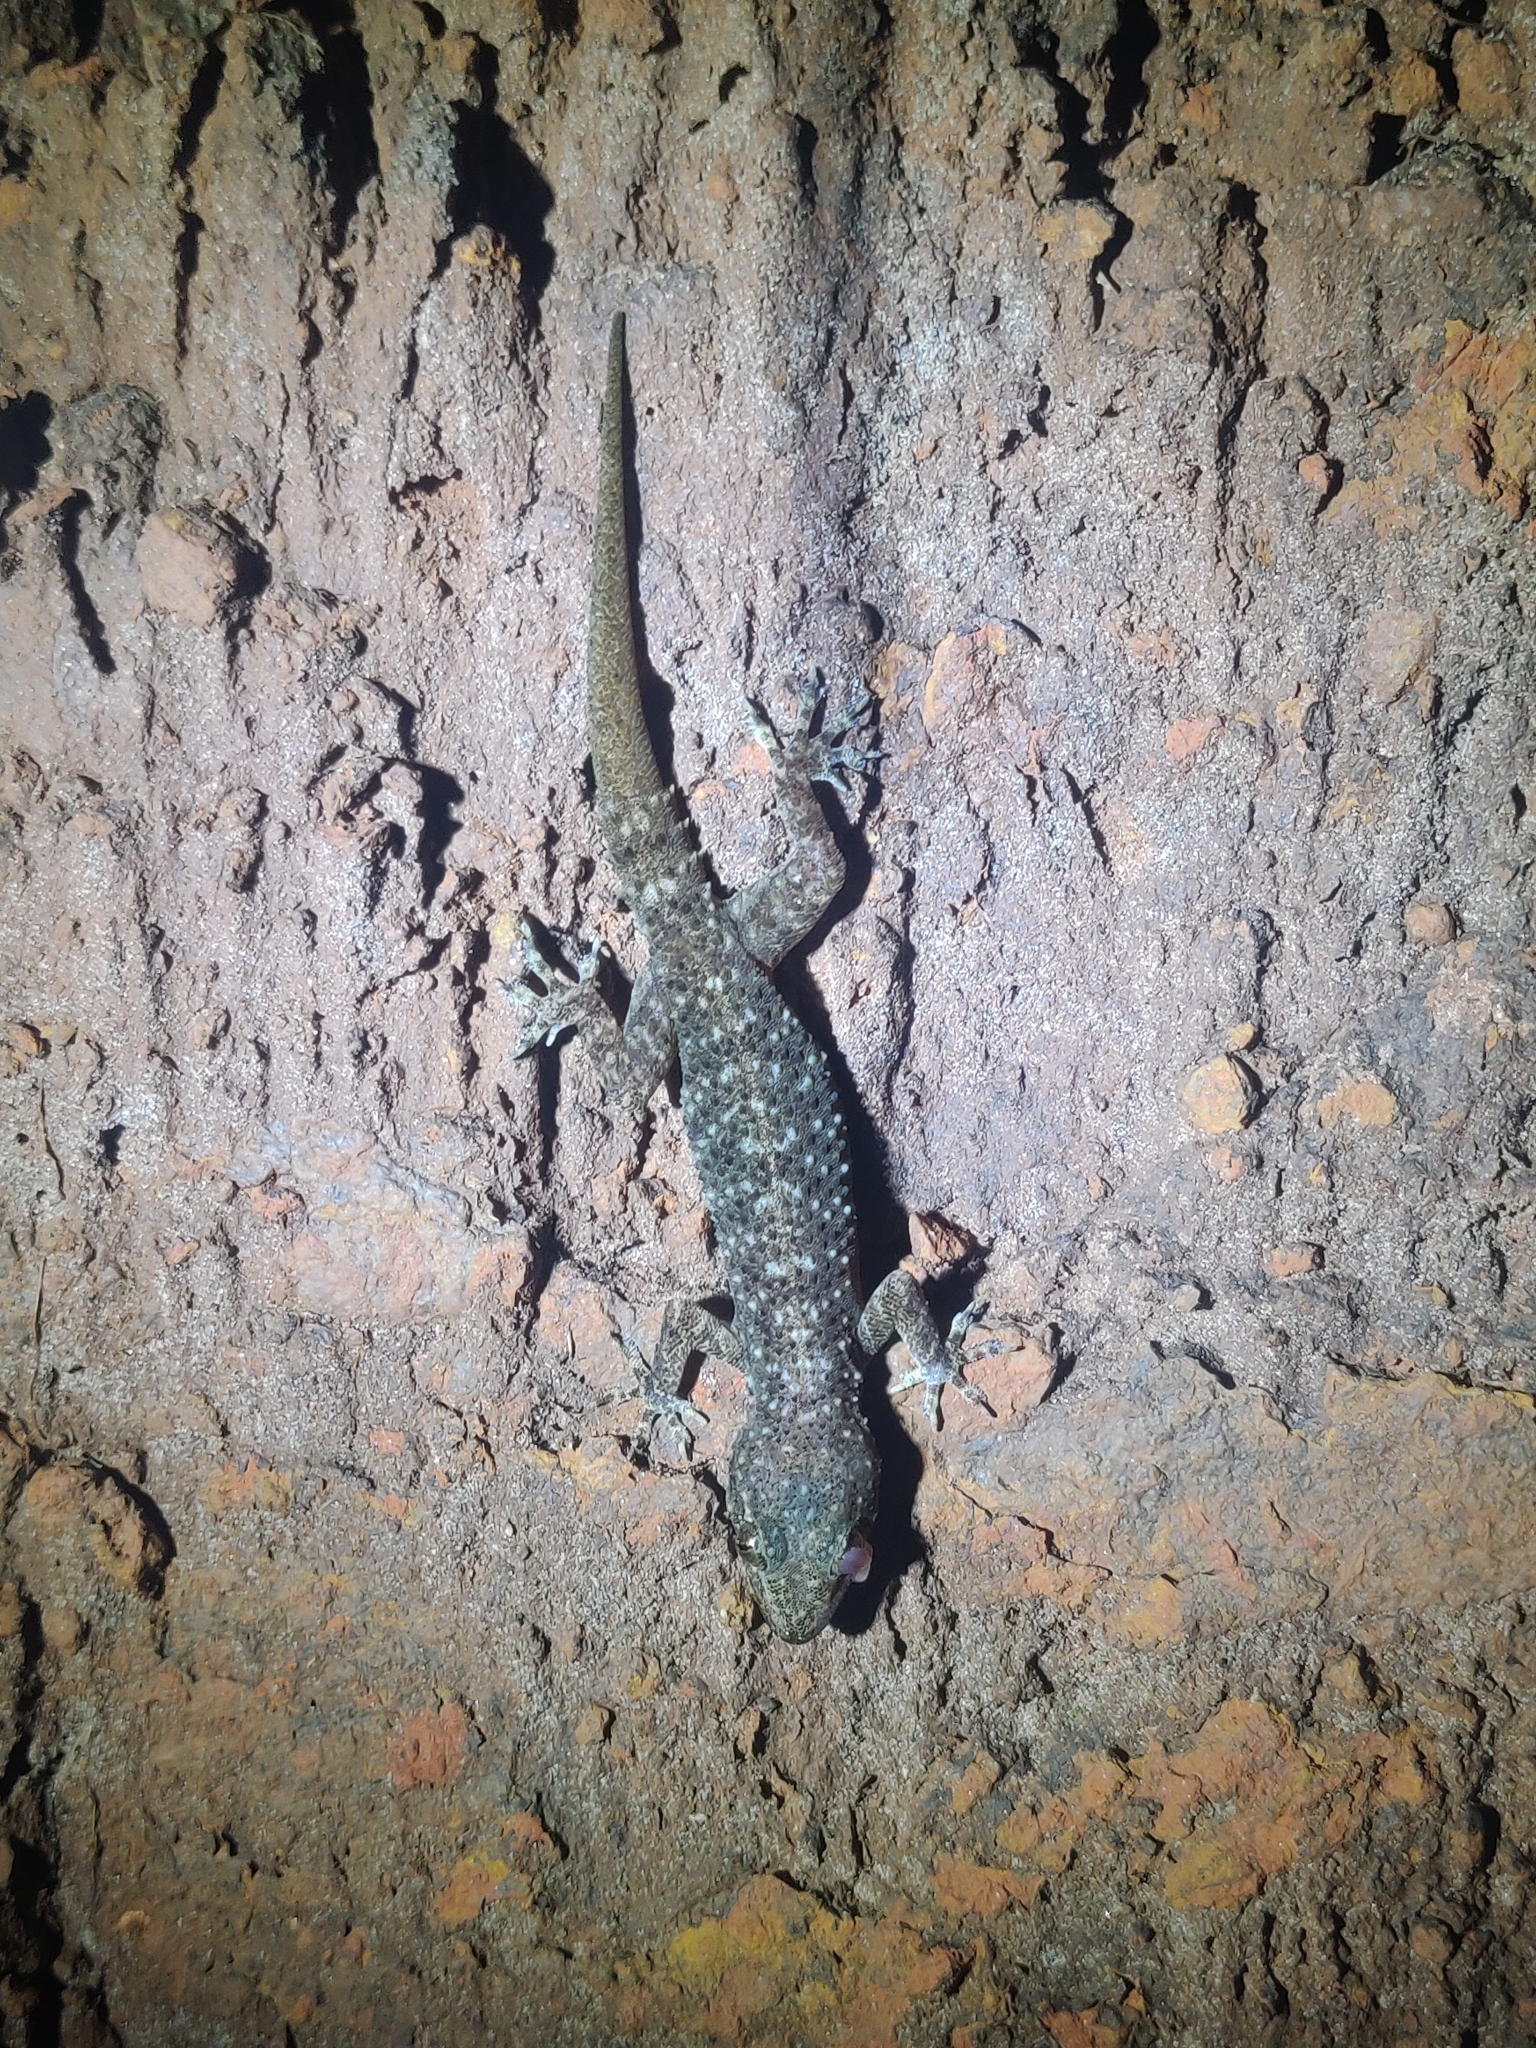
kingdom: Animalia
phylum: Chordata
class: Squamata
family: Gekkonidae
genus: Hemidactylus
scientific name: Hemidactylus brookii
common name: Brook's house gecko
